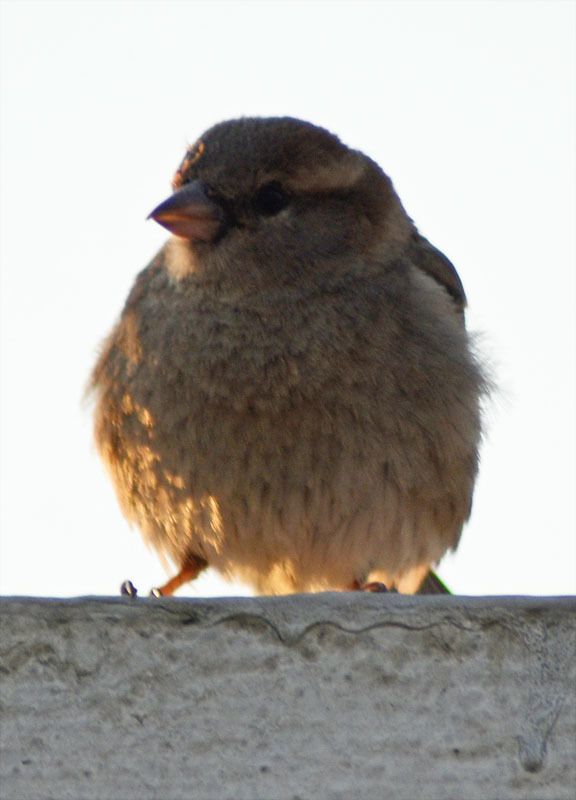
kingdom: Animalia
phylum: Chordata
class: Aves
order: Passeriformes
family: Passeridae
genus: Passer
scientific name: Passer domesticus
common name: House sparrow
